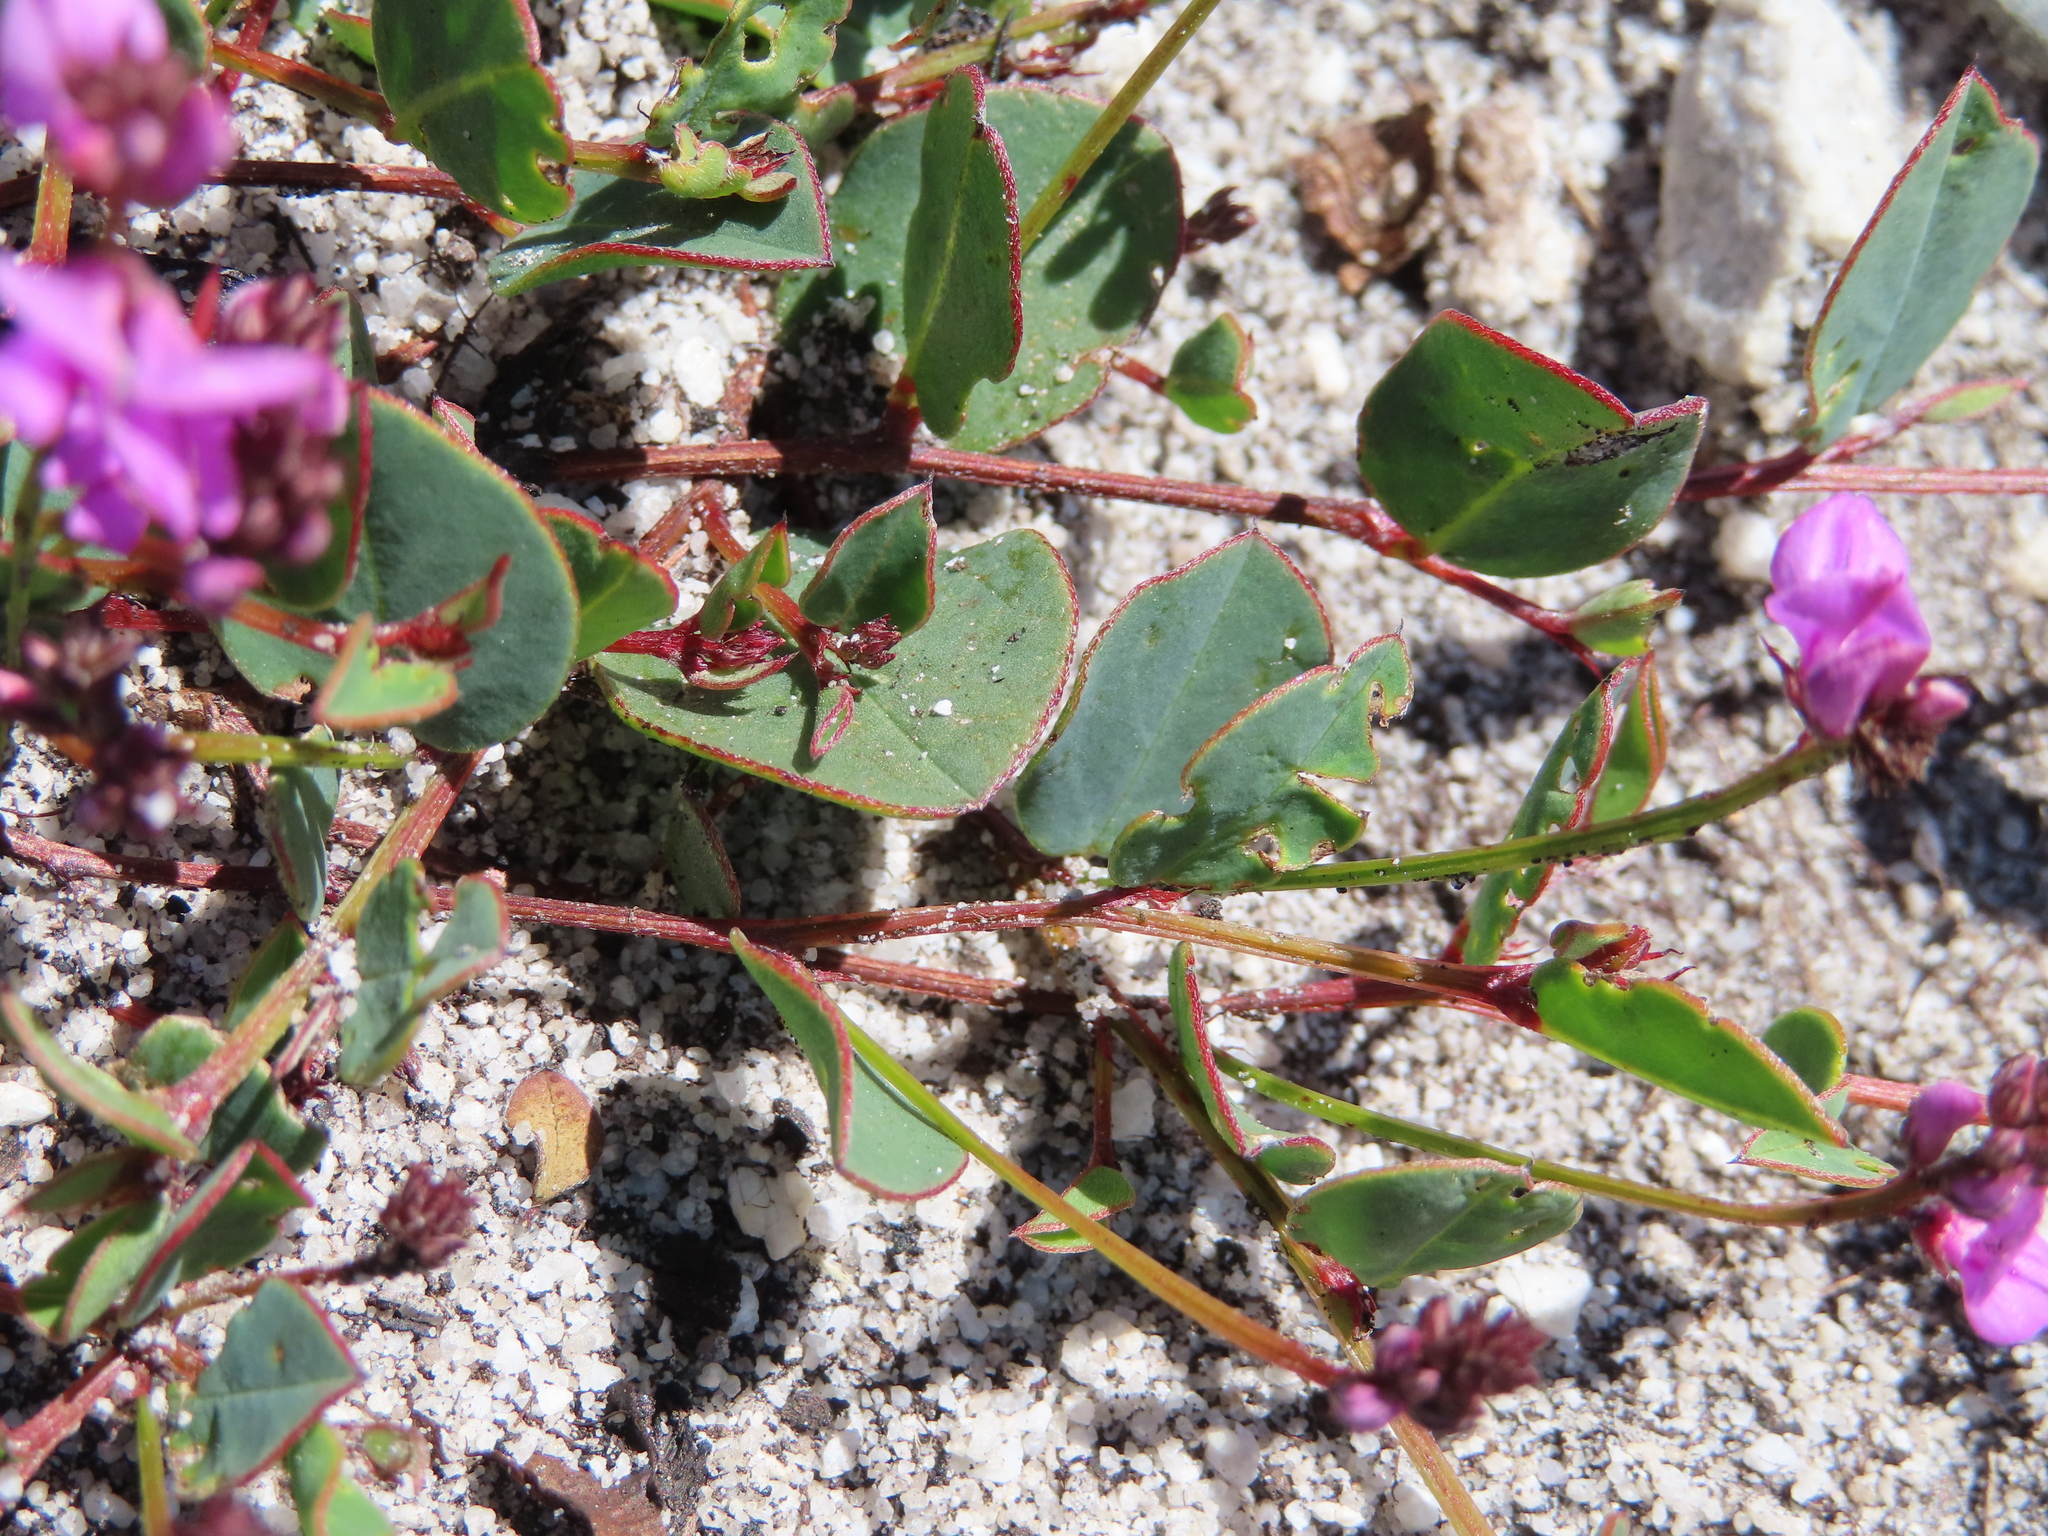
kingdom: Plantae
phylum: Tracheophyta
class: Magnoliopsida
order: Fabales
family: Fabaceae
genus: Indigofera
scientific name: Indigofera ovata
